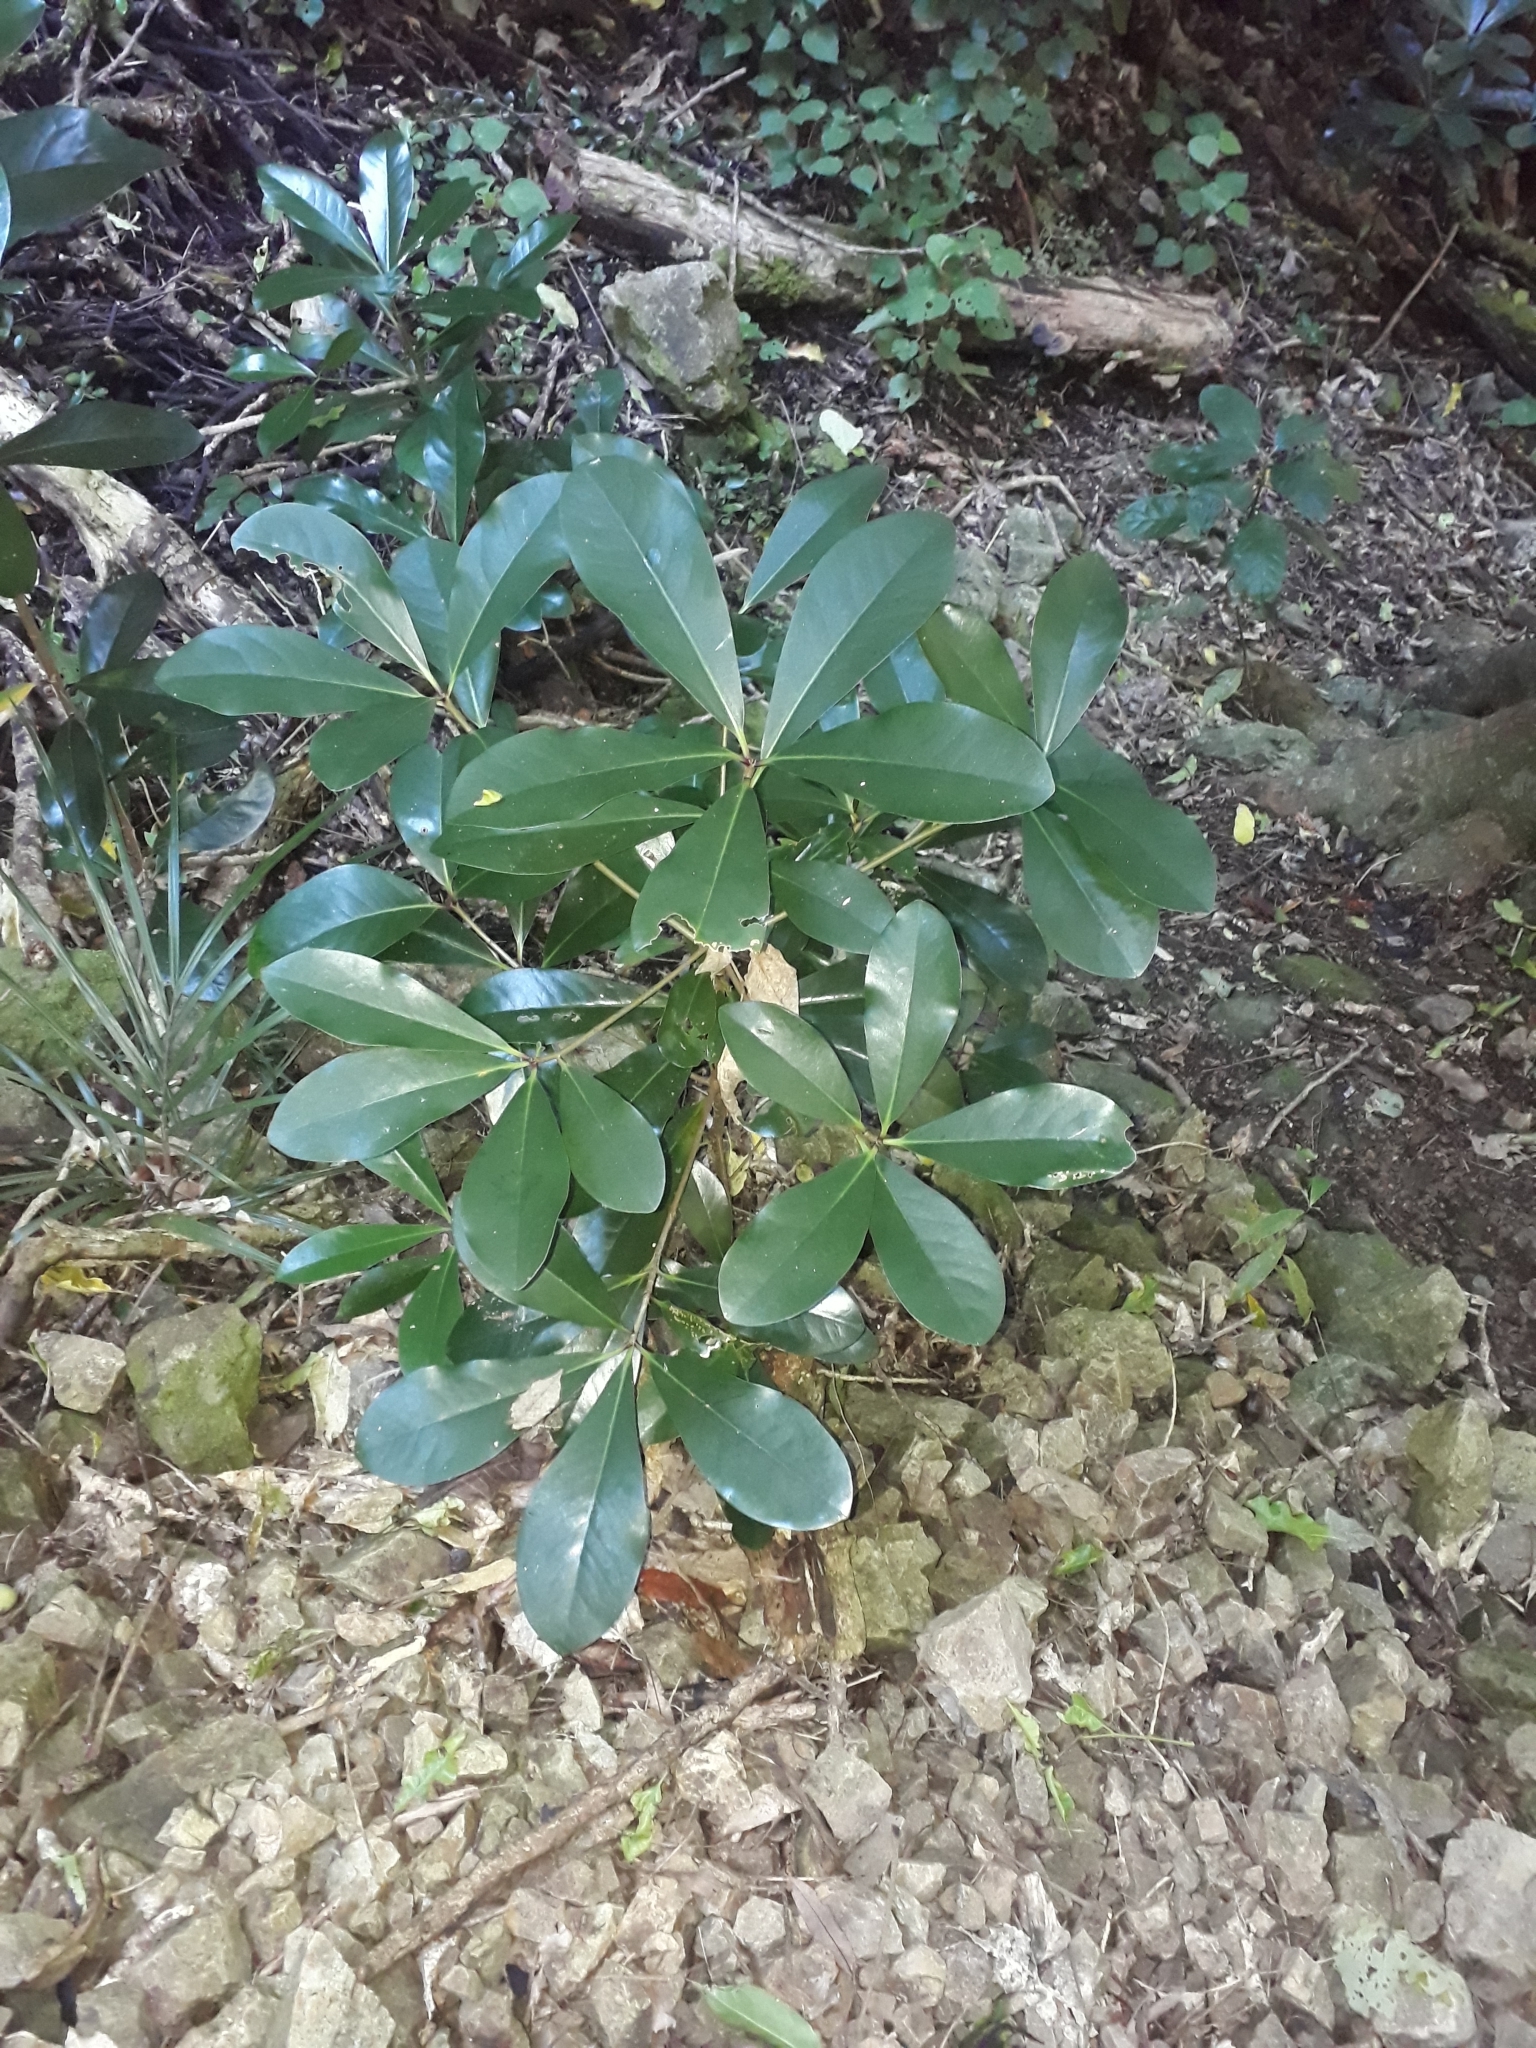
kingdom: Plantae
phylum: Tracheophyta
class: Magnoliopsida
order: Cucurbitales
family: Corynocarpaceae
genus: Corynocarpus
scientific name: Corynocarpus laevigatus
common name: New zealand laurel
